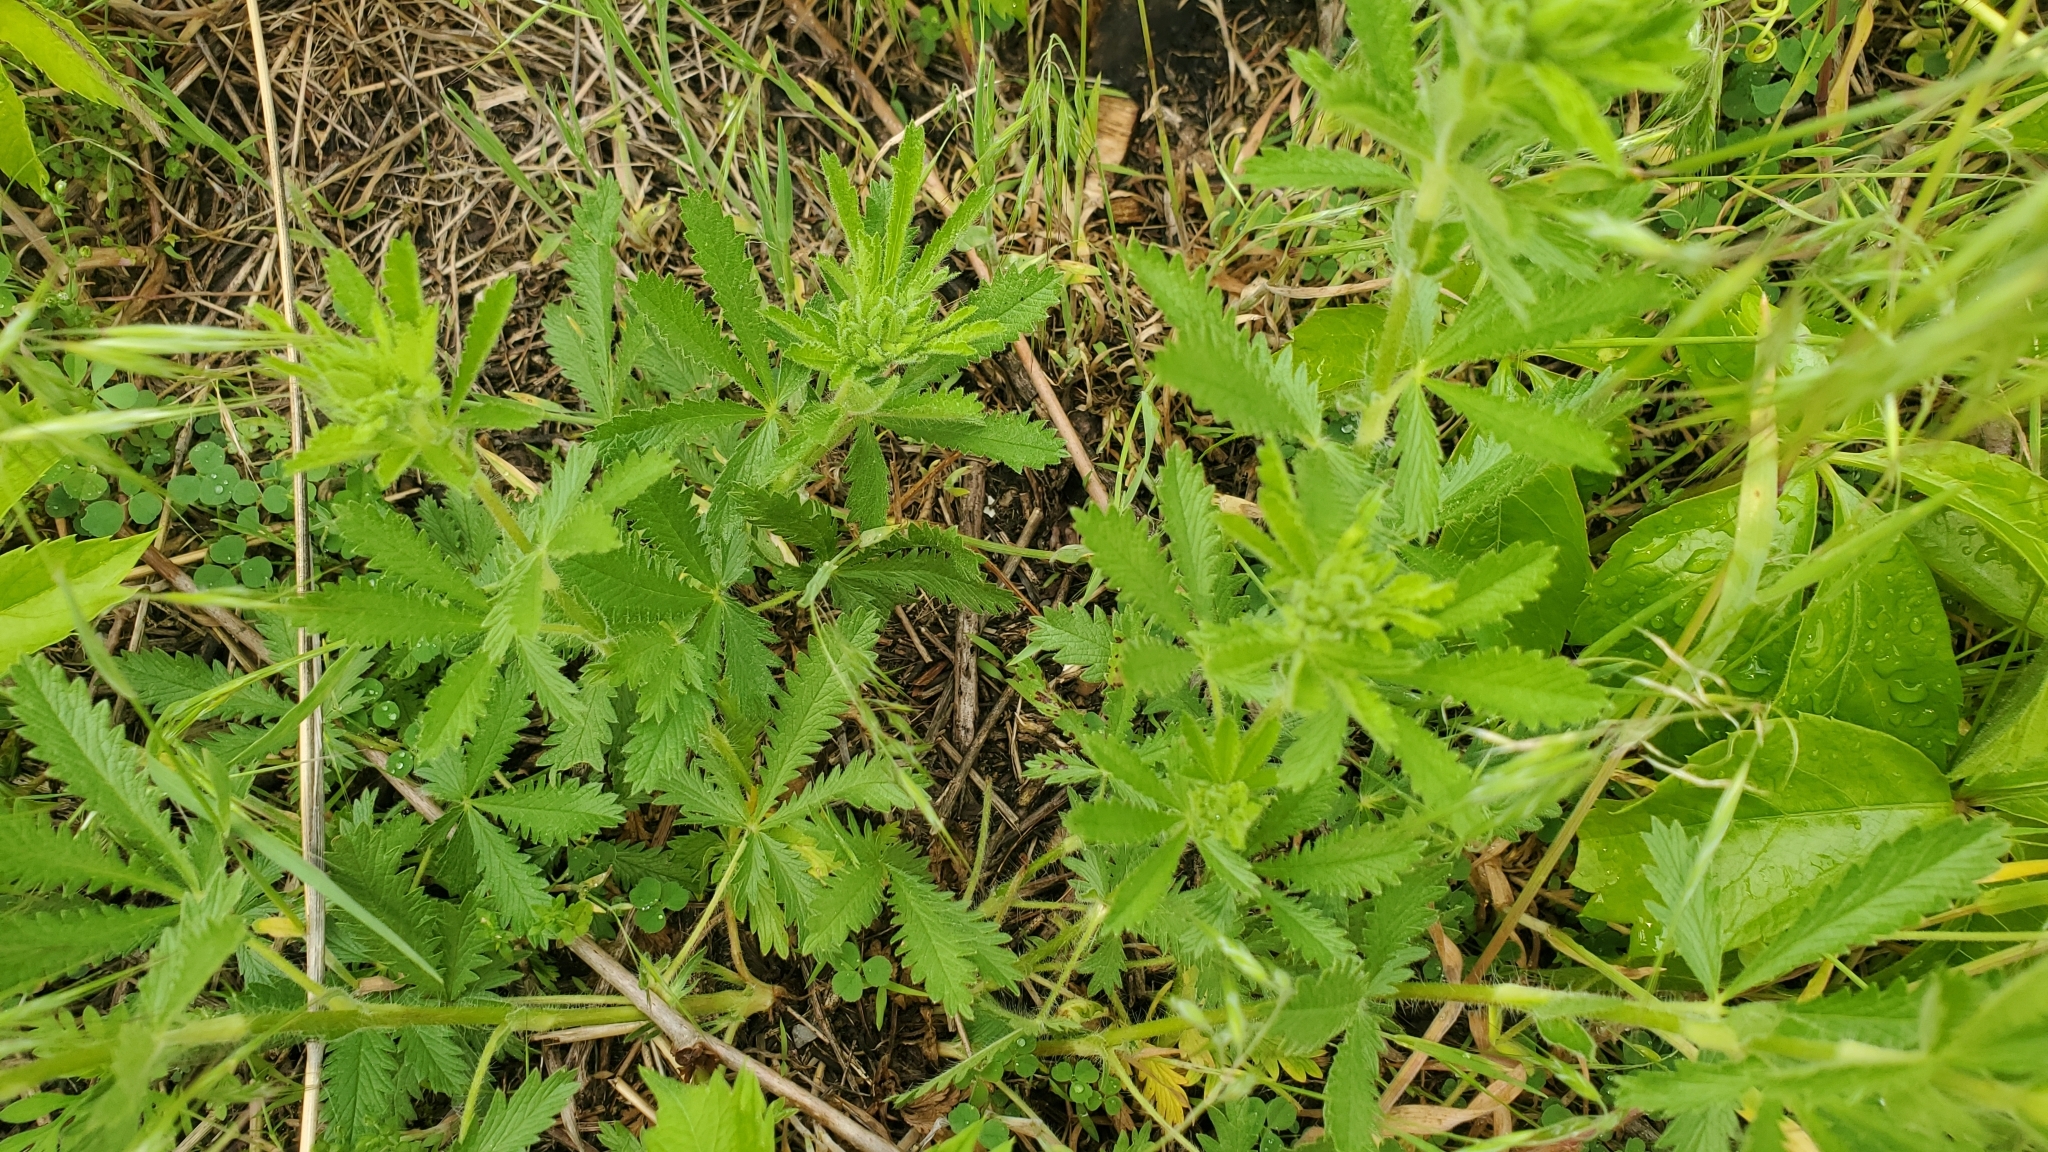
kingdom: Plantae
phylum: Tracheophyta
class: Magnoliopsida
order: Rosales
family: Rosaceae
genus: Potentilla
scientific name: Potentilla recta
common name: Sulphur cinquefoil
